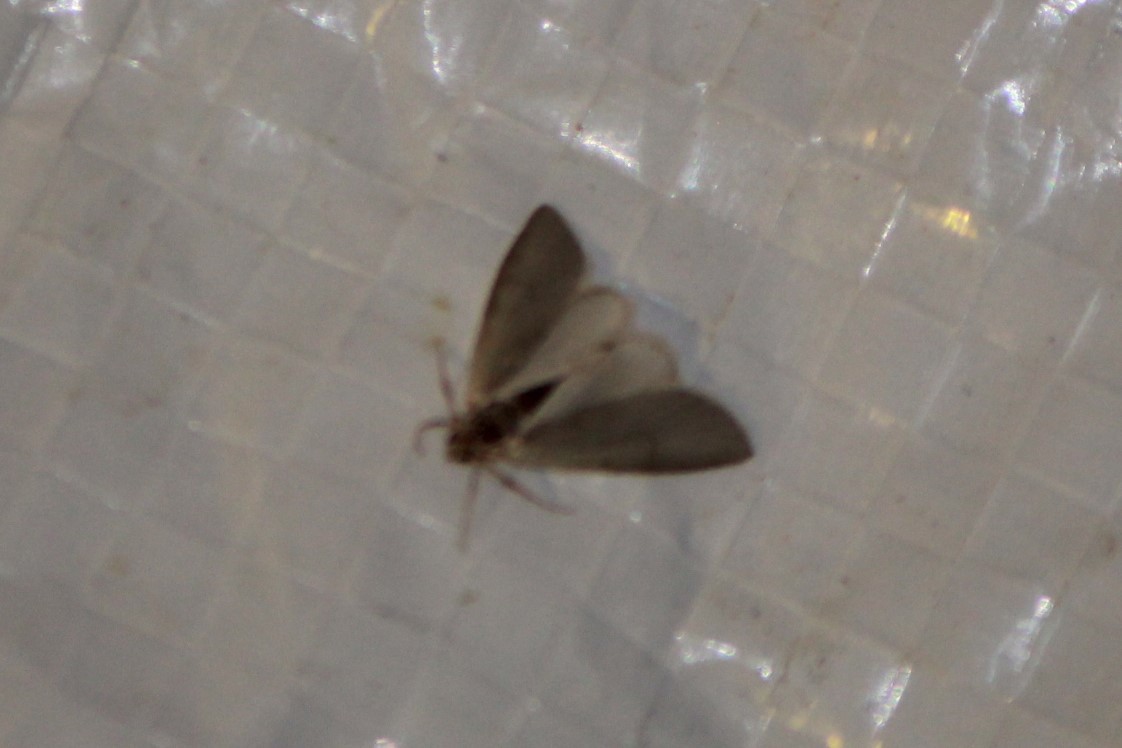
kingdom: Animalia
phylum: Arthropoda
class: Insecta
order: Lepidoptera
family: Crambidae
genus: Acentria
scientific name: Acentria ephemerella
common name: European water moth
